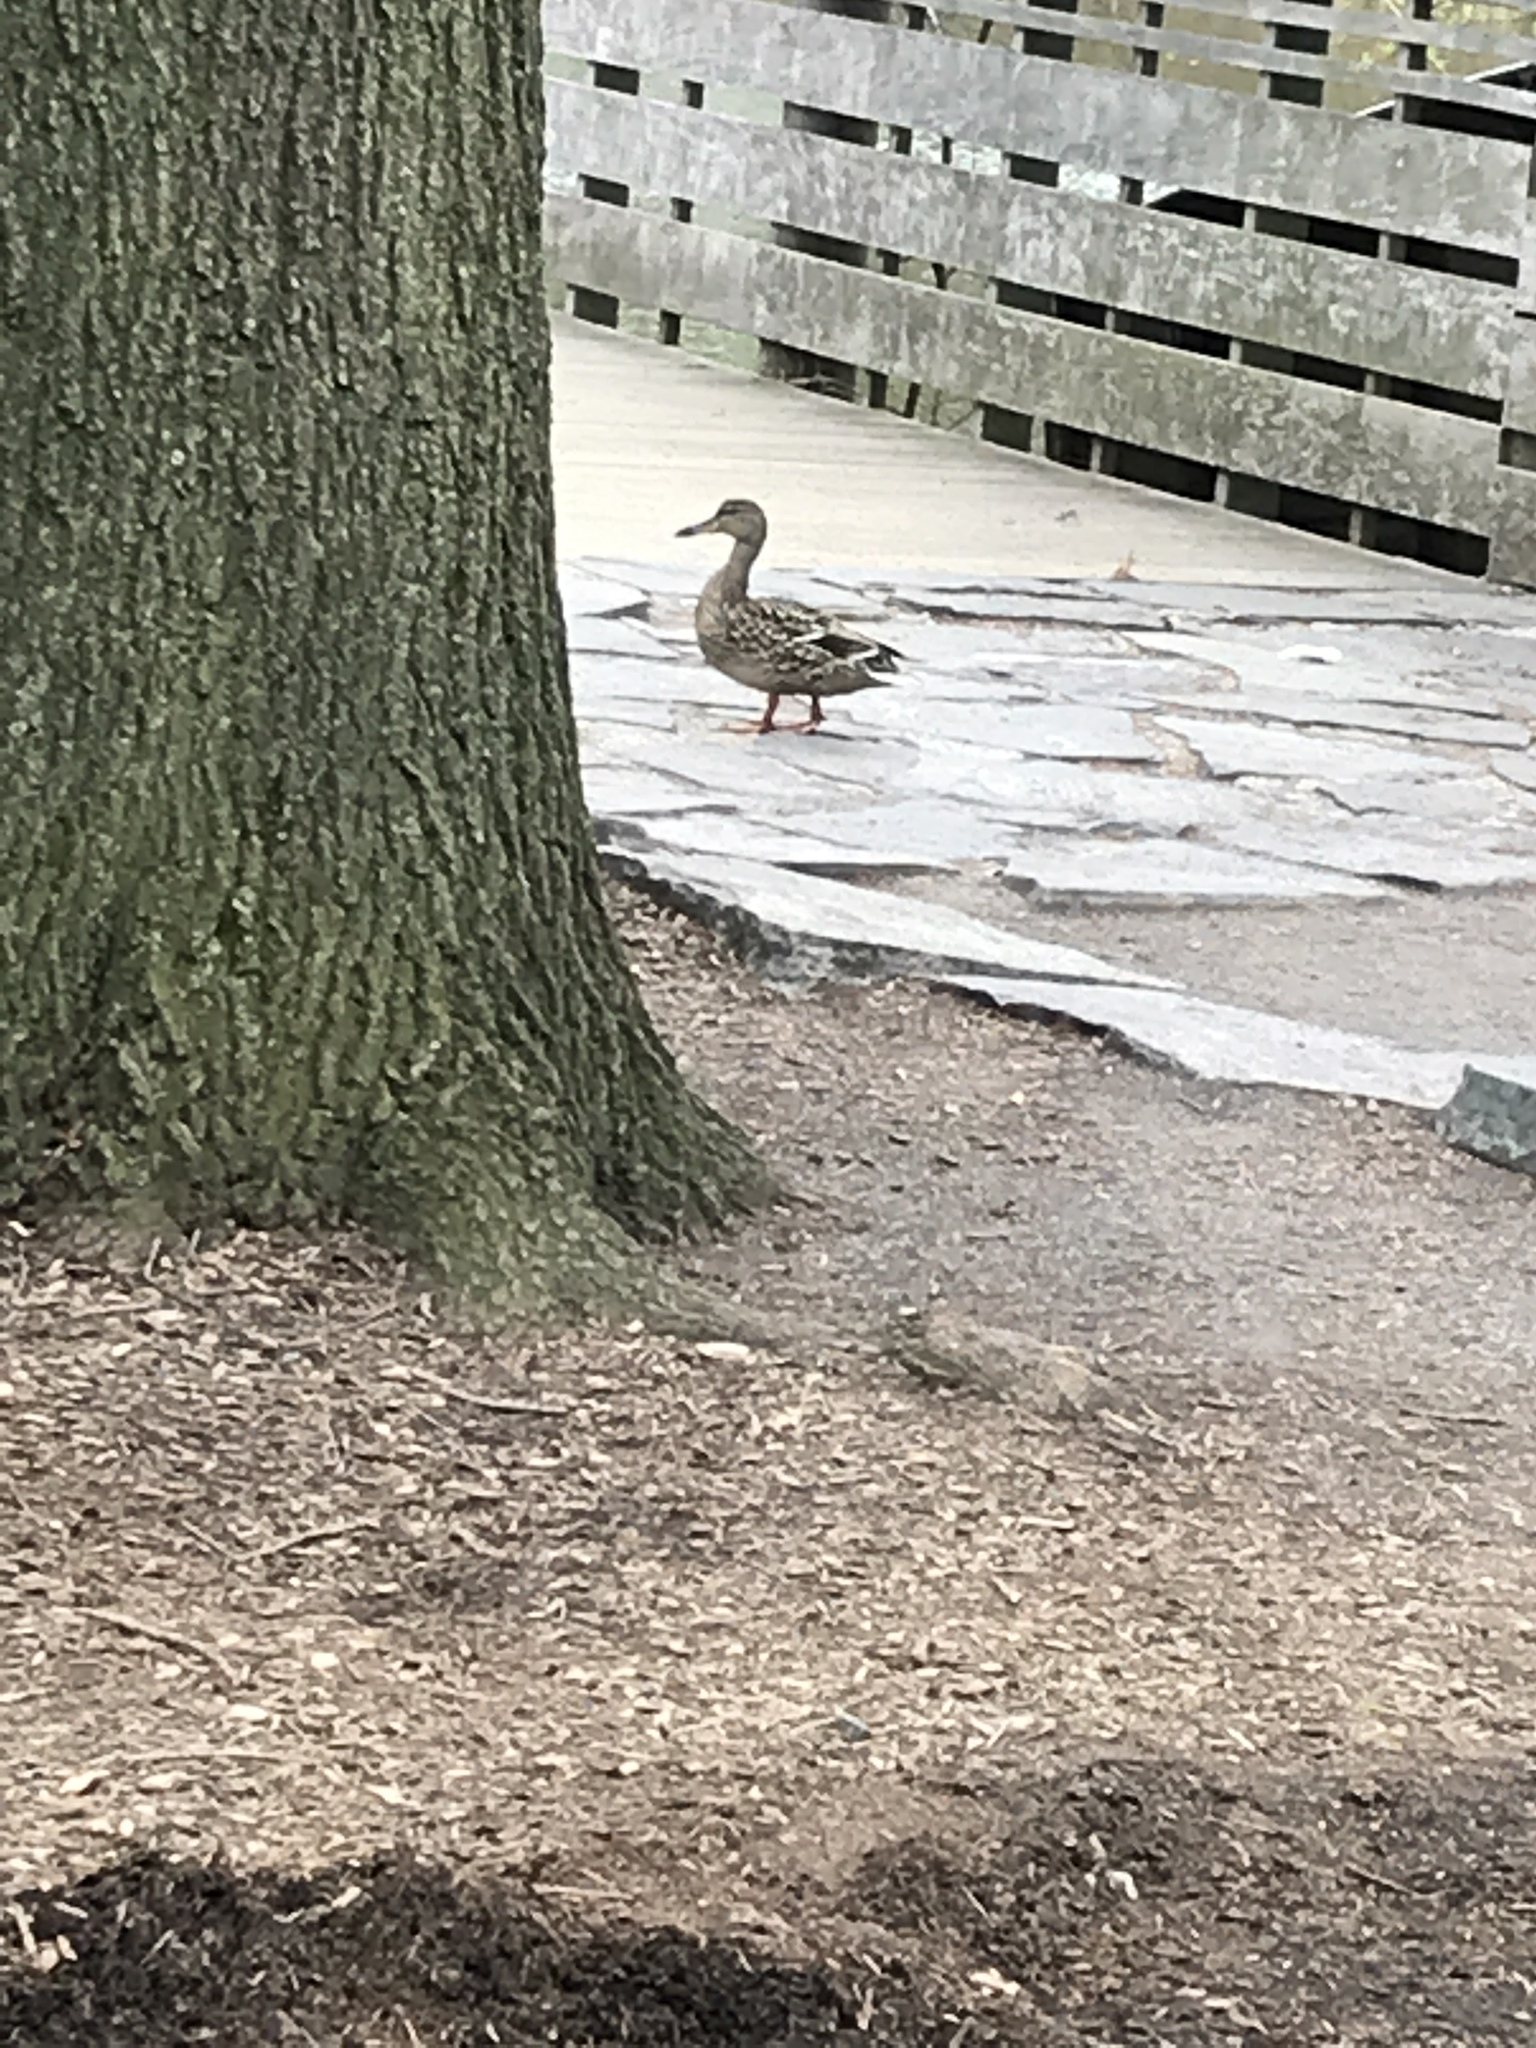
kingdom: Animalia
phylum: Chordata
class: Aves
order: Anseriformes
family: Anatidae
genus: Anas
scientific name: Anas platyrhynchos
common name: Mallard
